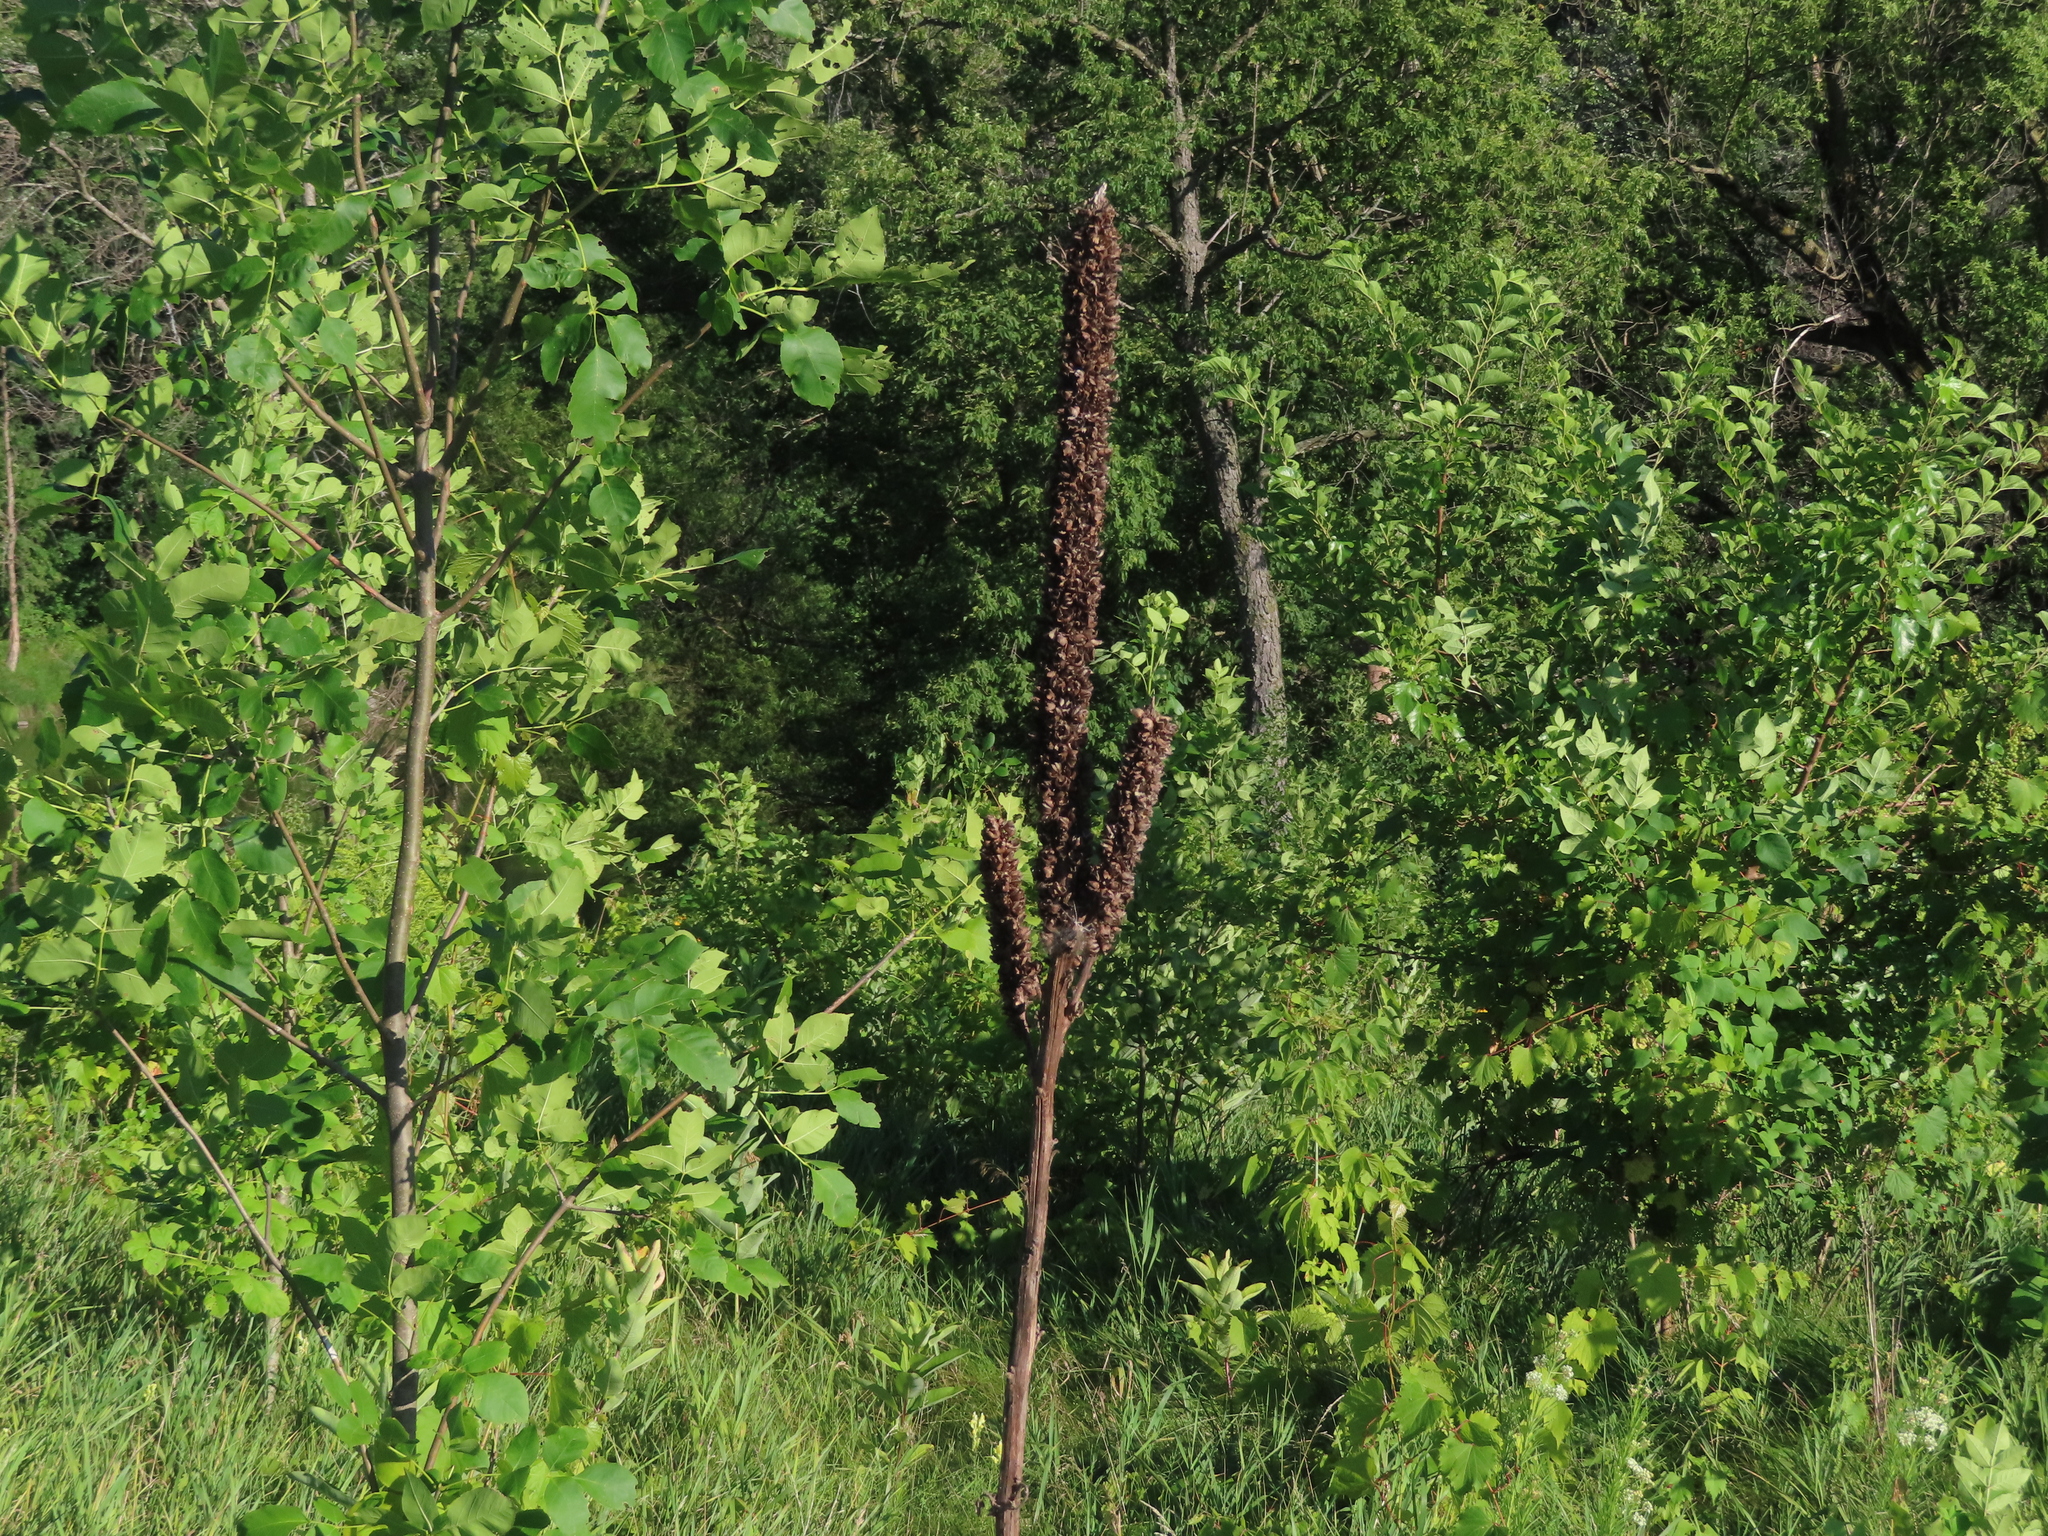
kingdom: Plantae
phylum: Tracheophyta
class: Magnoliopsida
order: Lamiales
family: Scrophulariaceae
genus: Verbascum
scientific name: Verbascum thapsus
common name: Common mullein
